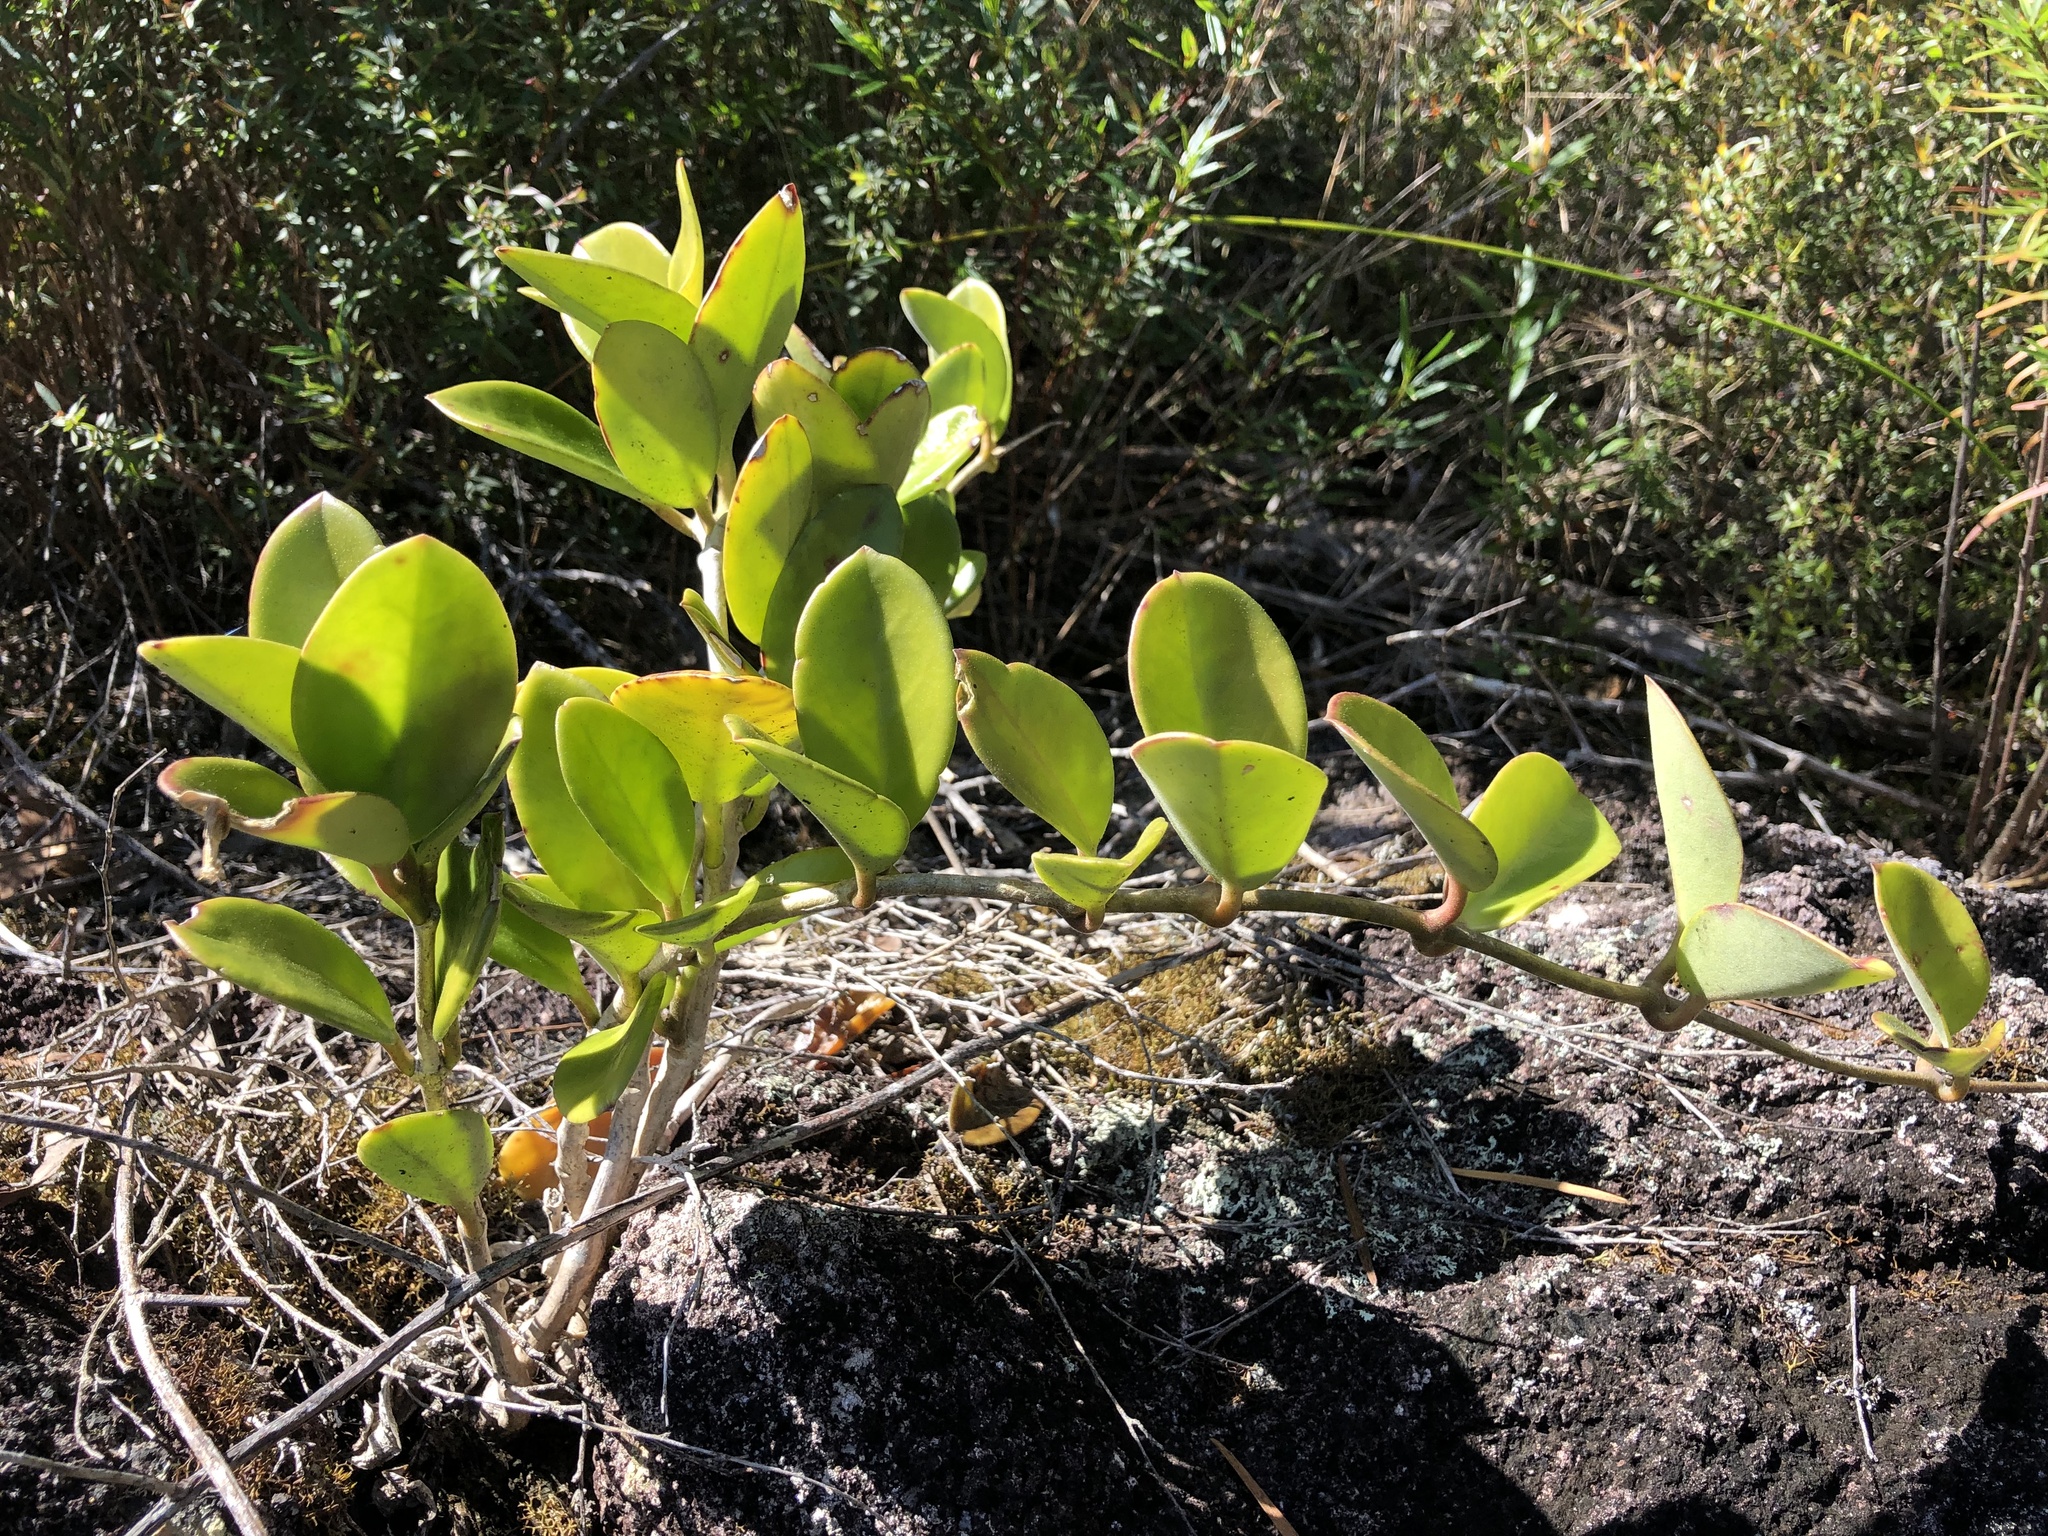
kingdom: Plantae
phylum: Tracheophyta
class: Magnoliopsida
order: Gentianales
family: Apocynaceae
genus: Hoya
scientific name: Hoya australis
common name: Wax flower
